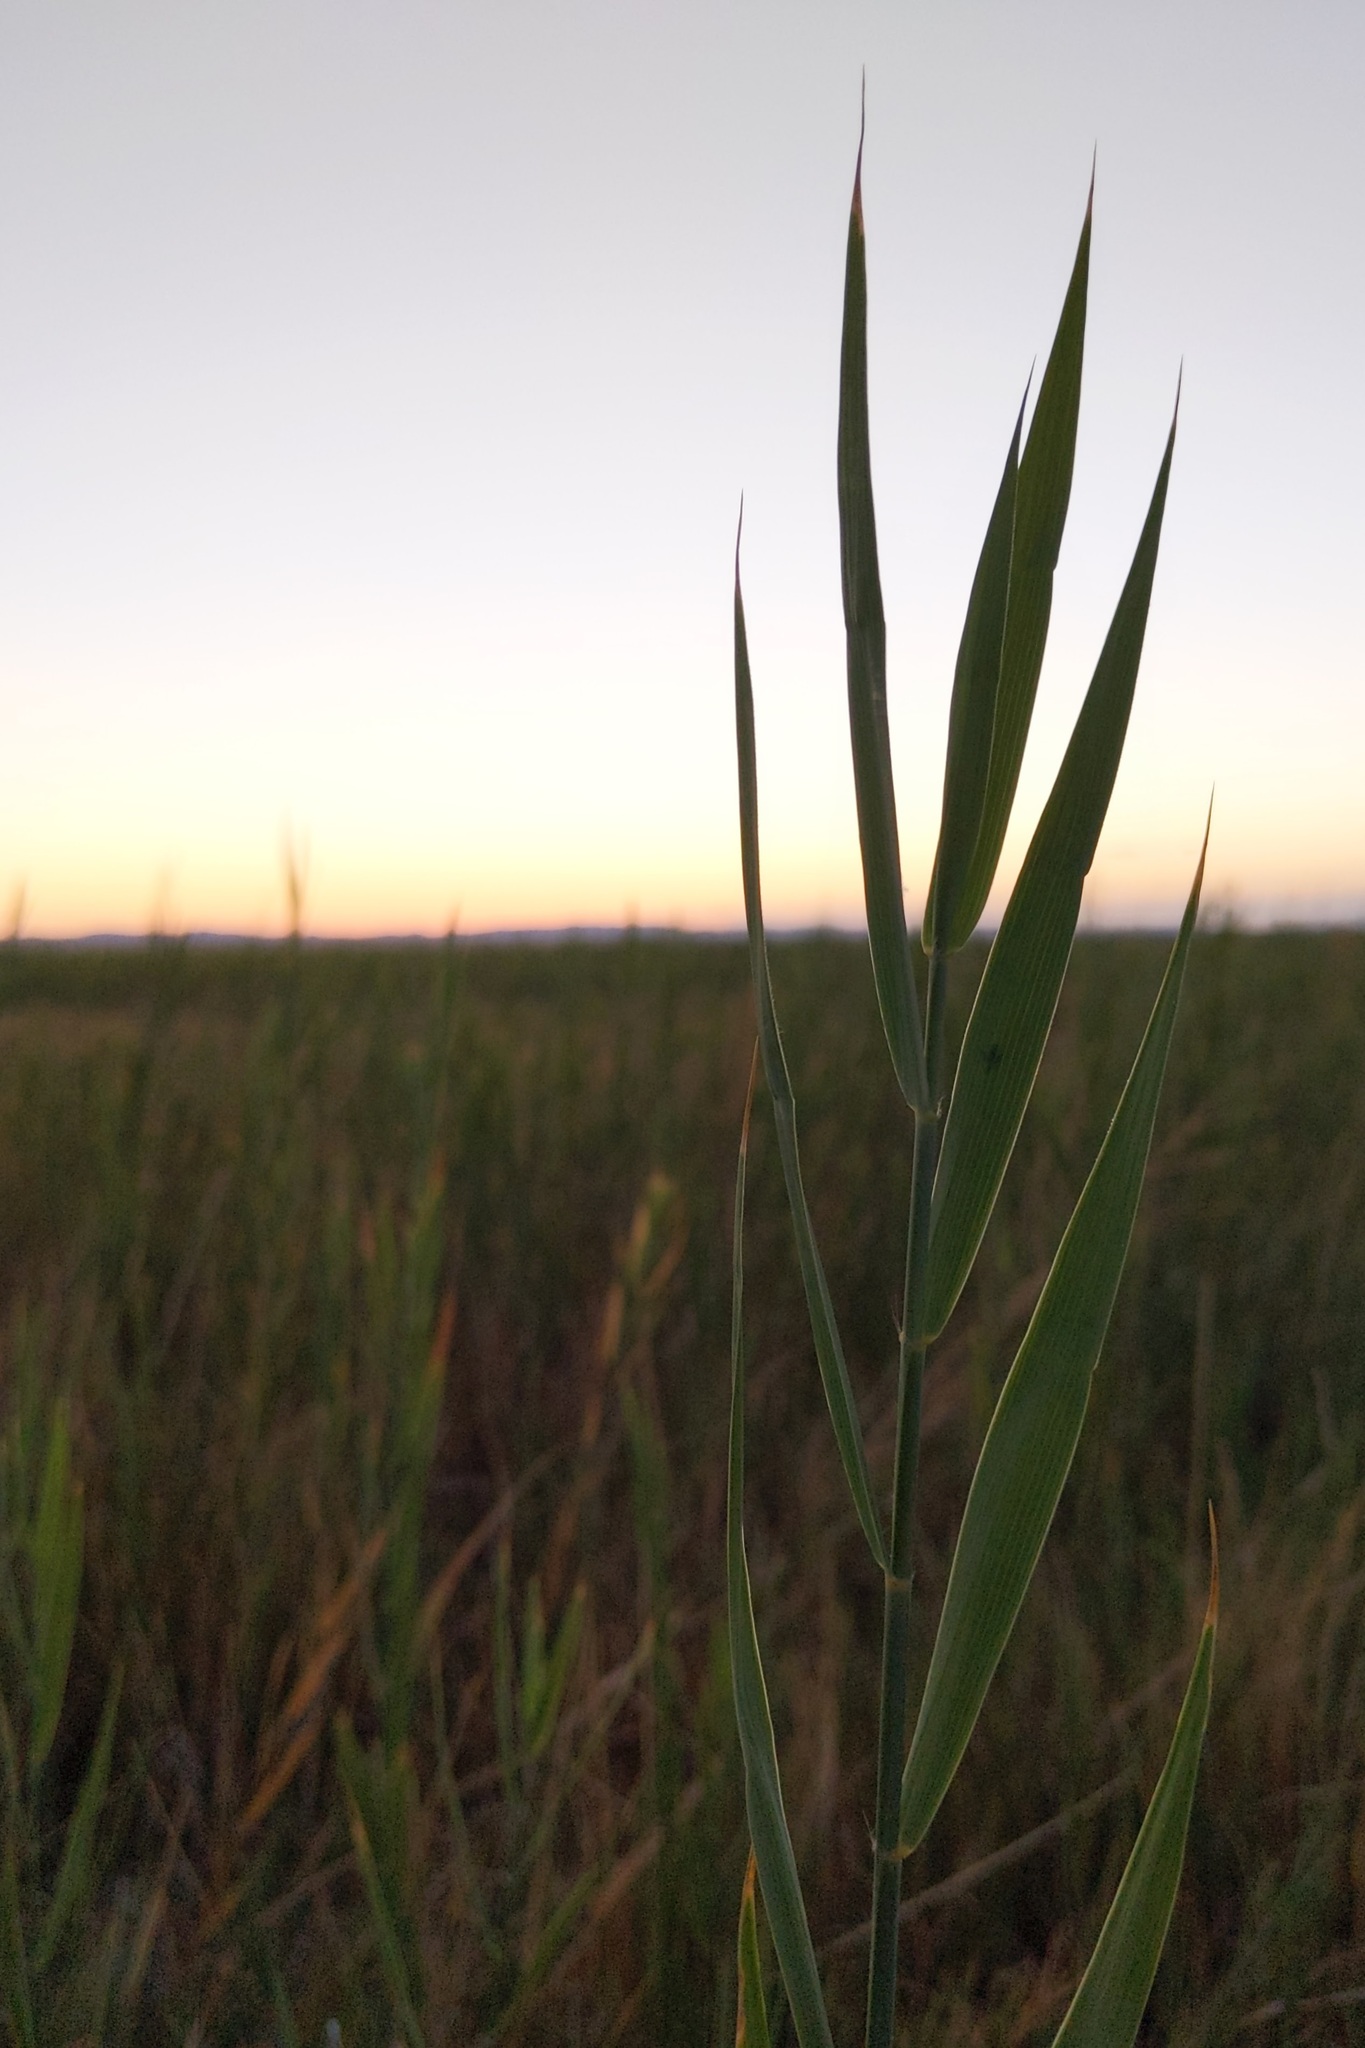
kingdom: Plantae
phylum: Tracheophyta
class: Liliopsida
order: Poales
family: Poaceae
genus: Phragmites
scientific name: Phragmites australis
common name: Common reed
